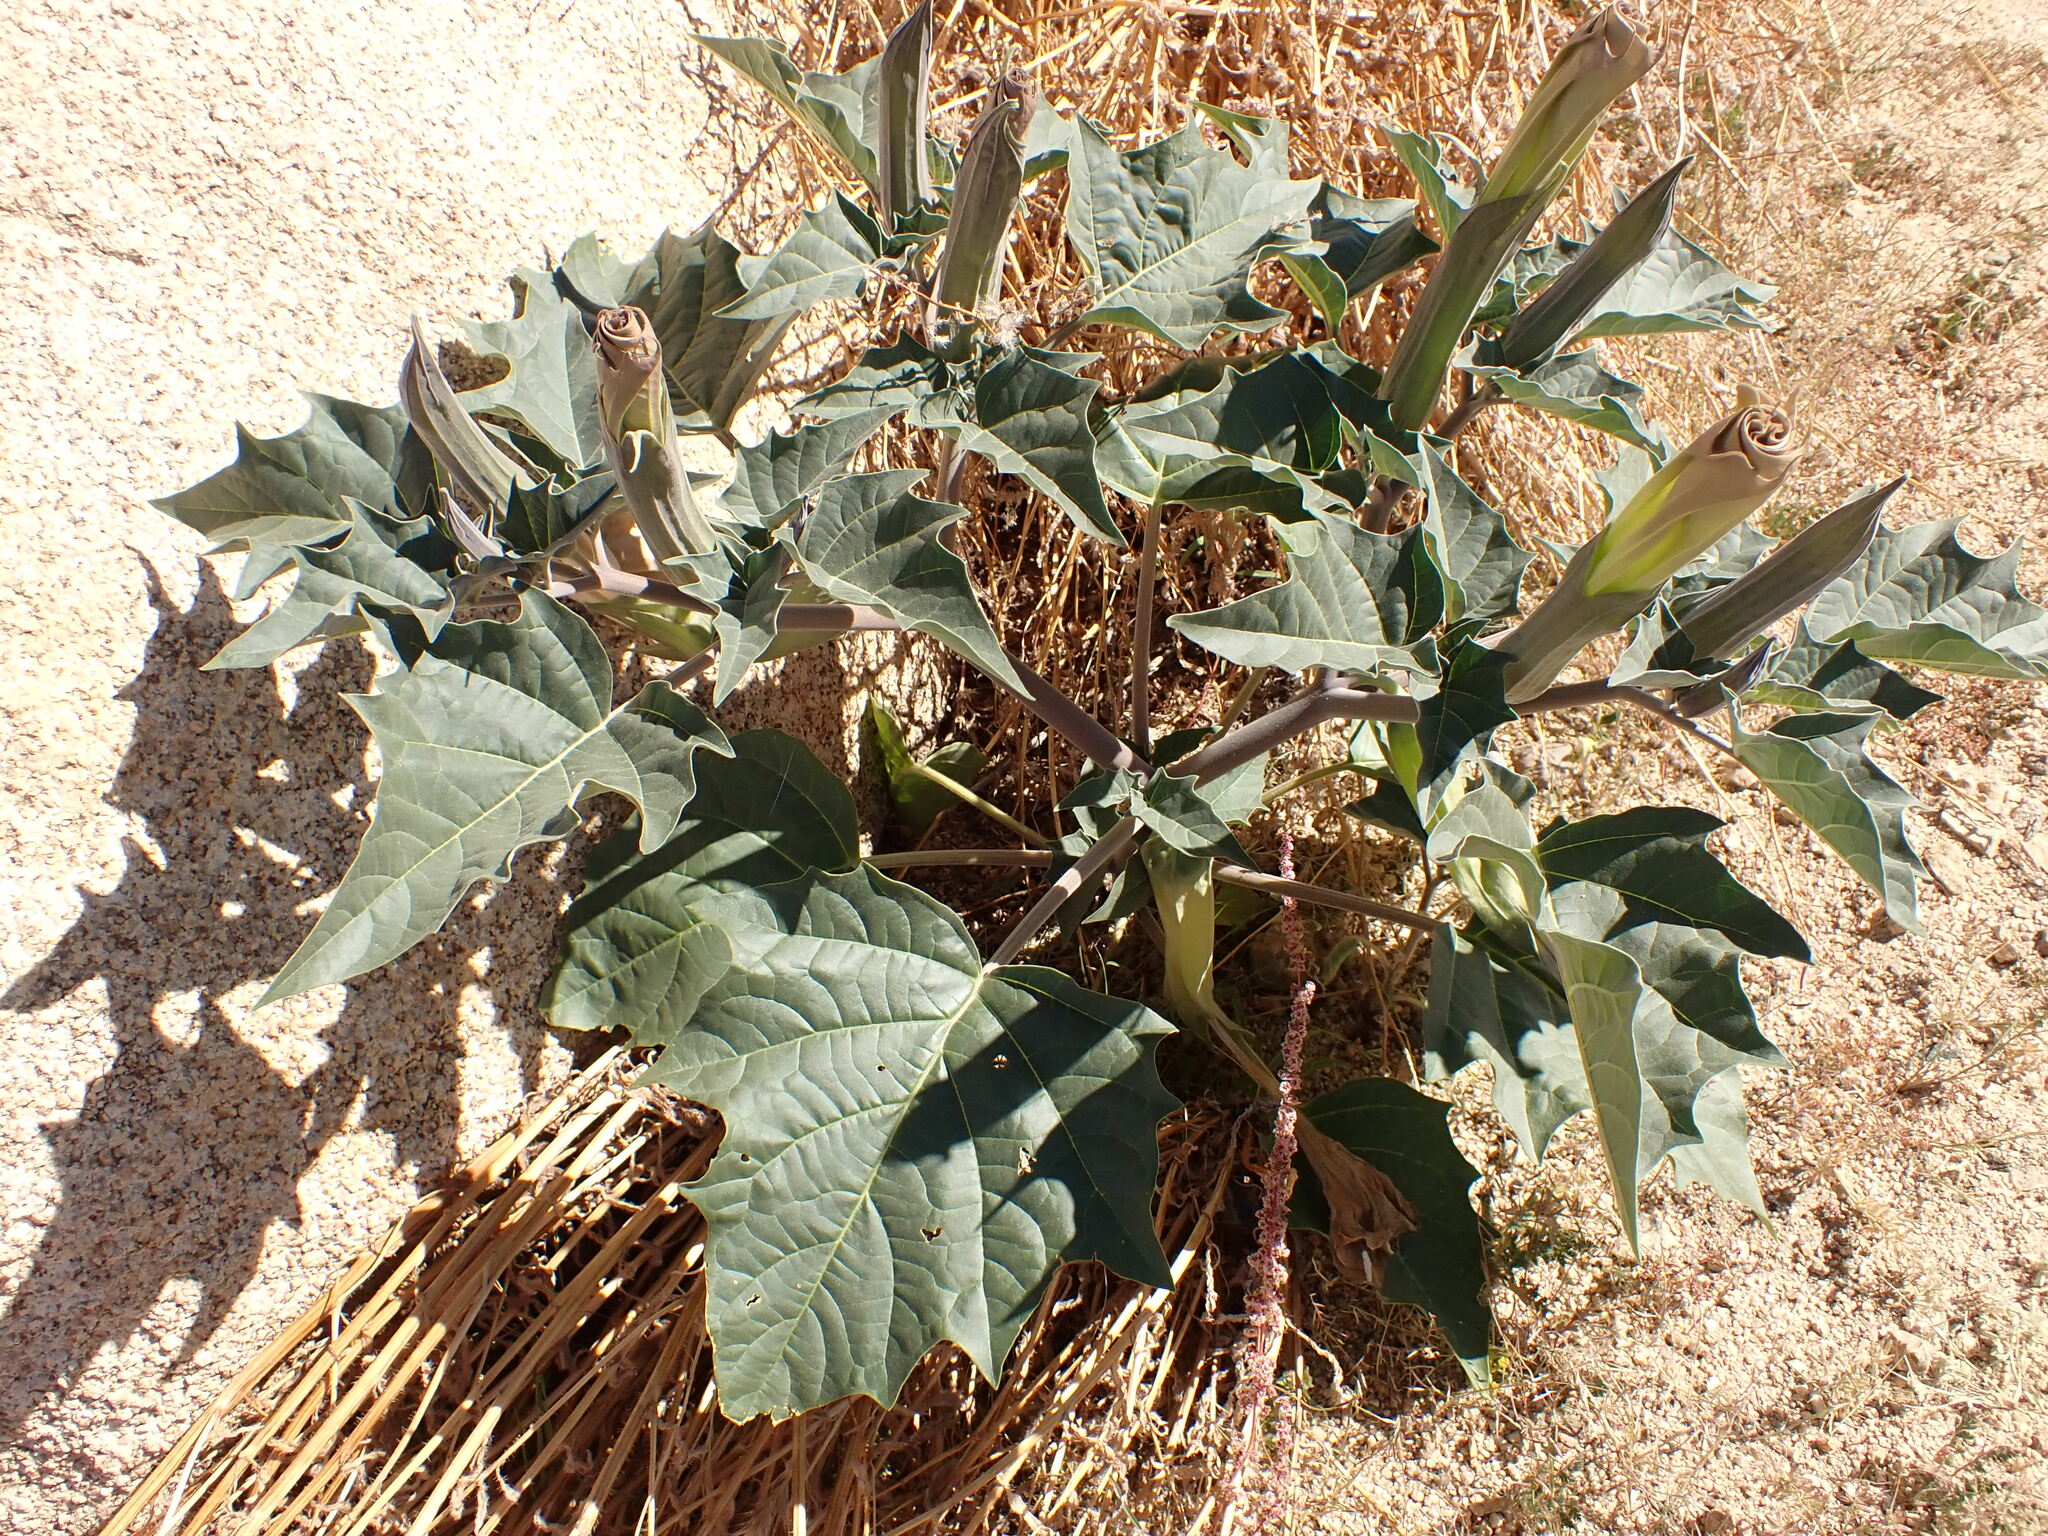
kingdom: Plantae
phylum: Tracheophyta
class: Magnoliopsida
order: Solanales
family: Solanaceae
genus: Datura
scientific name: Datura wrightii
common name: Sacred thorn-apple
